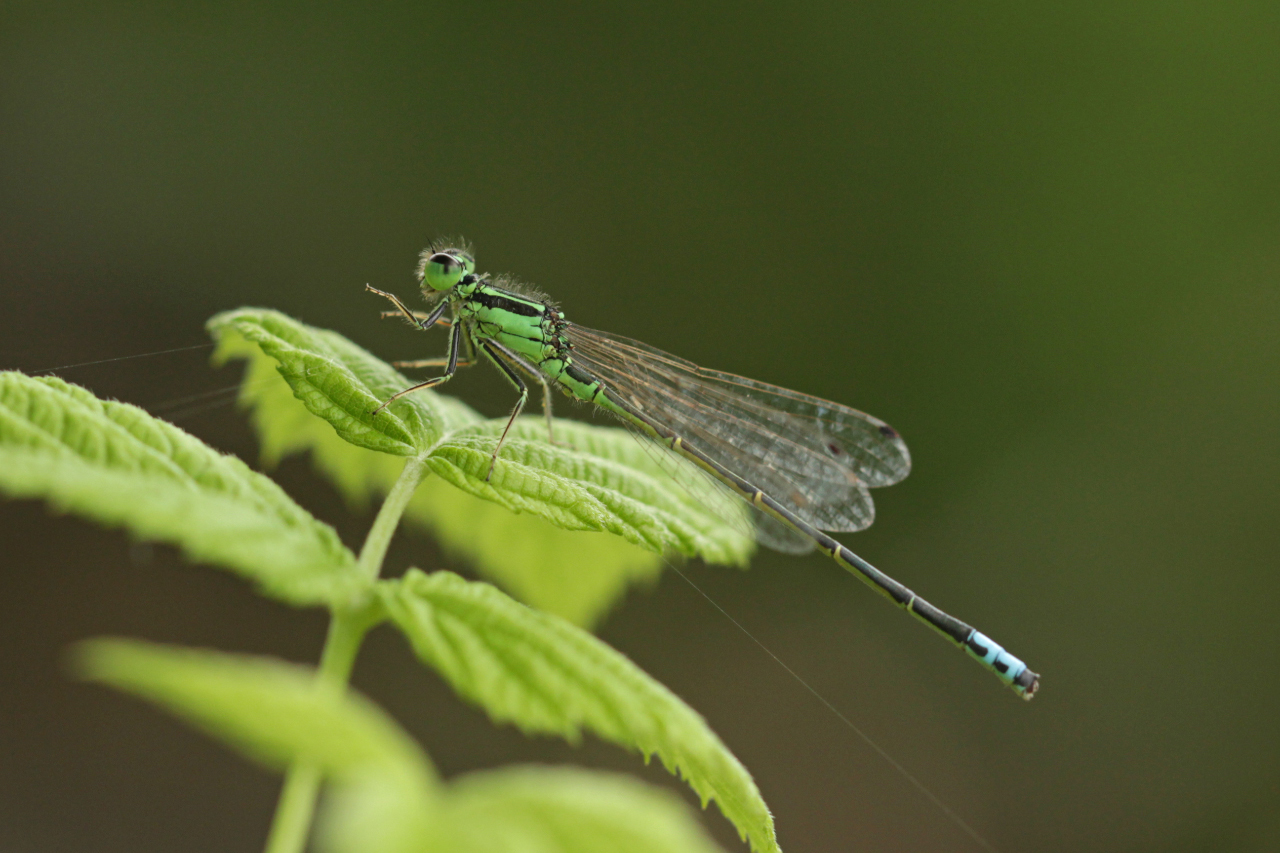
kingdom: Animalia
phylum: Arthropoda
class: Insecta
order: Odonata
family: Coenagrionidae
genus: Ischnura
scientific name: Ischnura verticalis
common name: Eastern forktail
